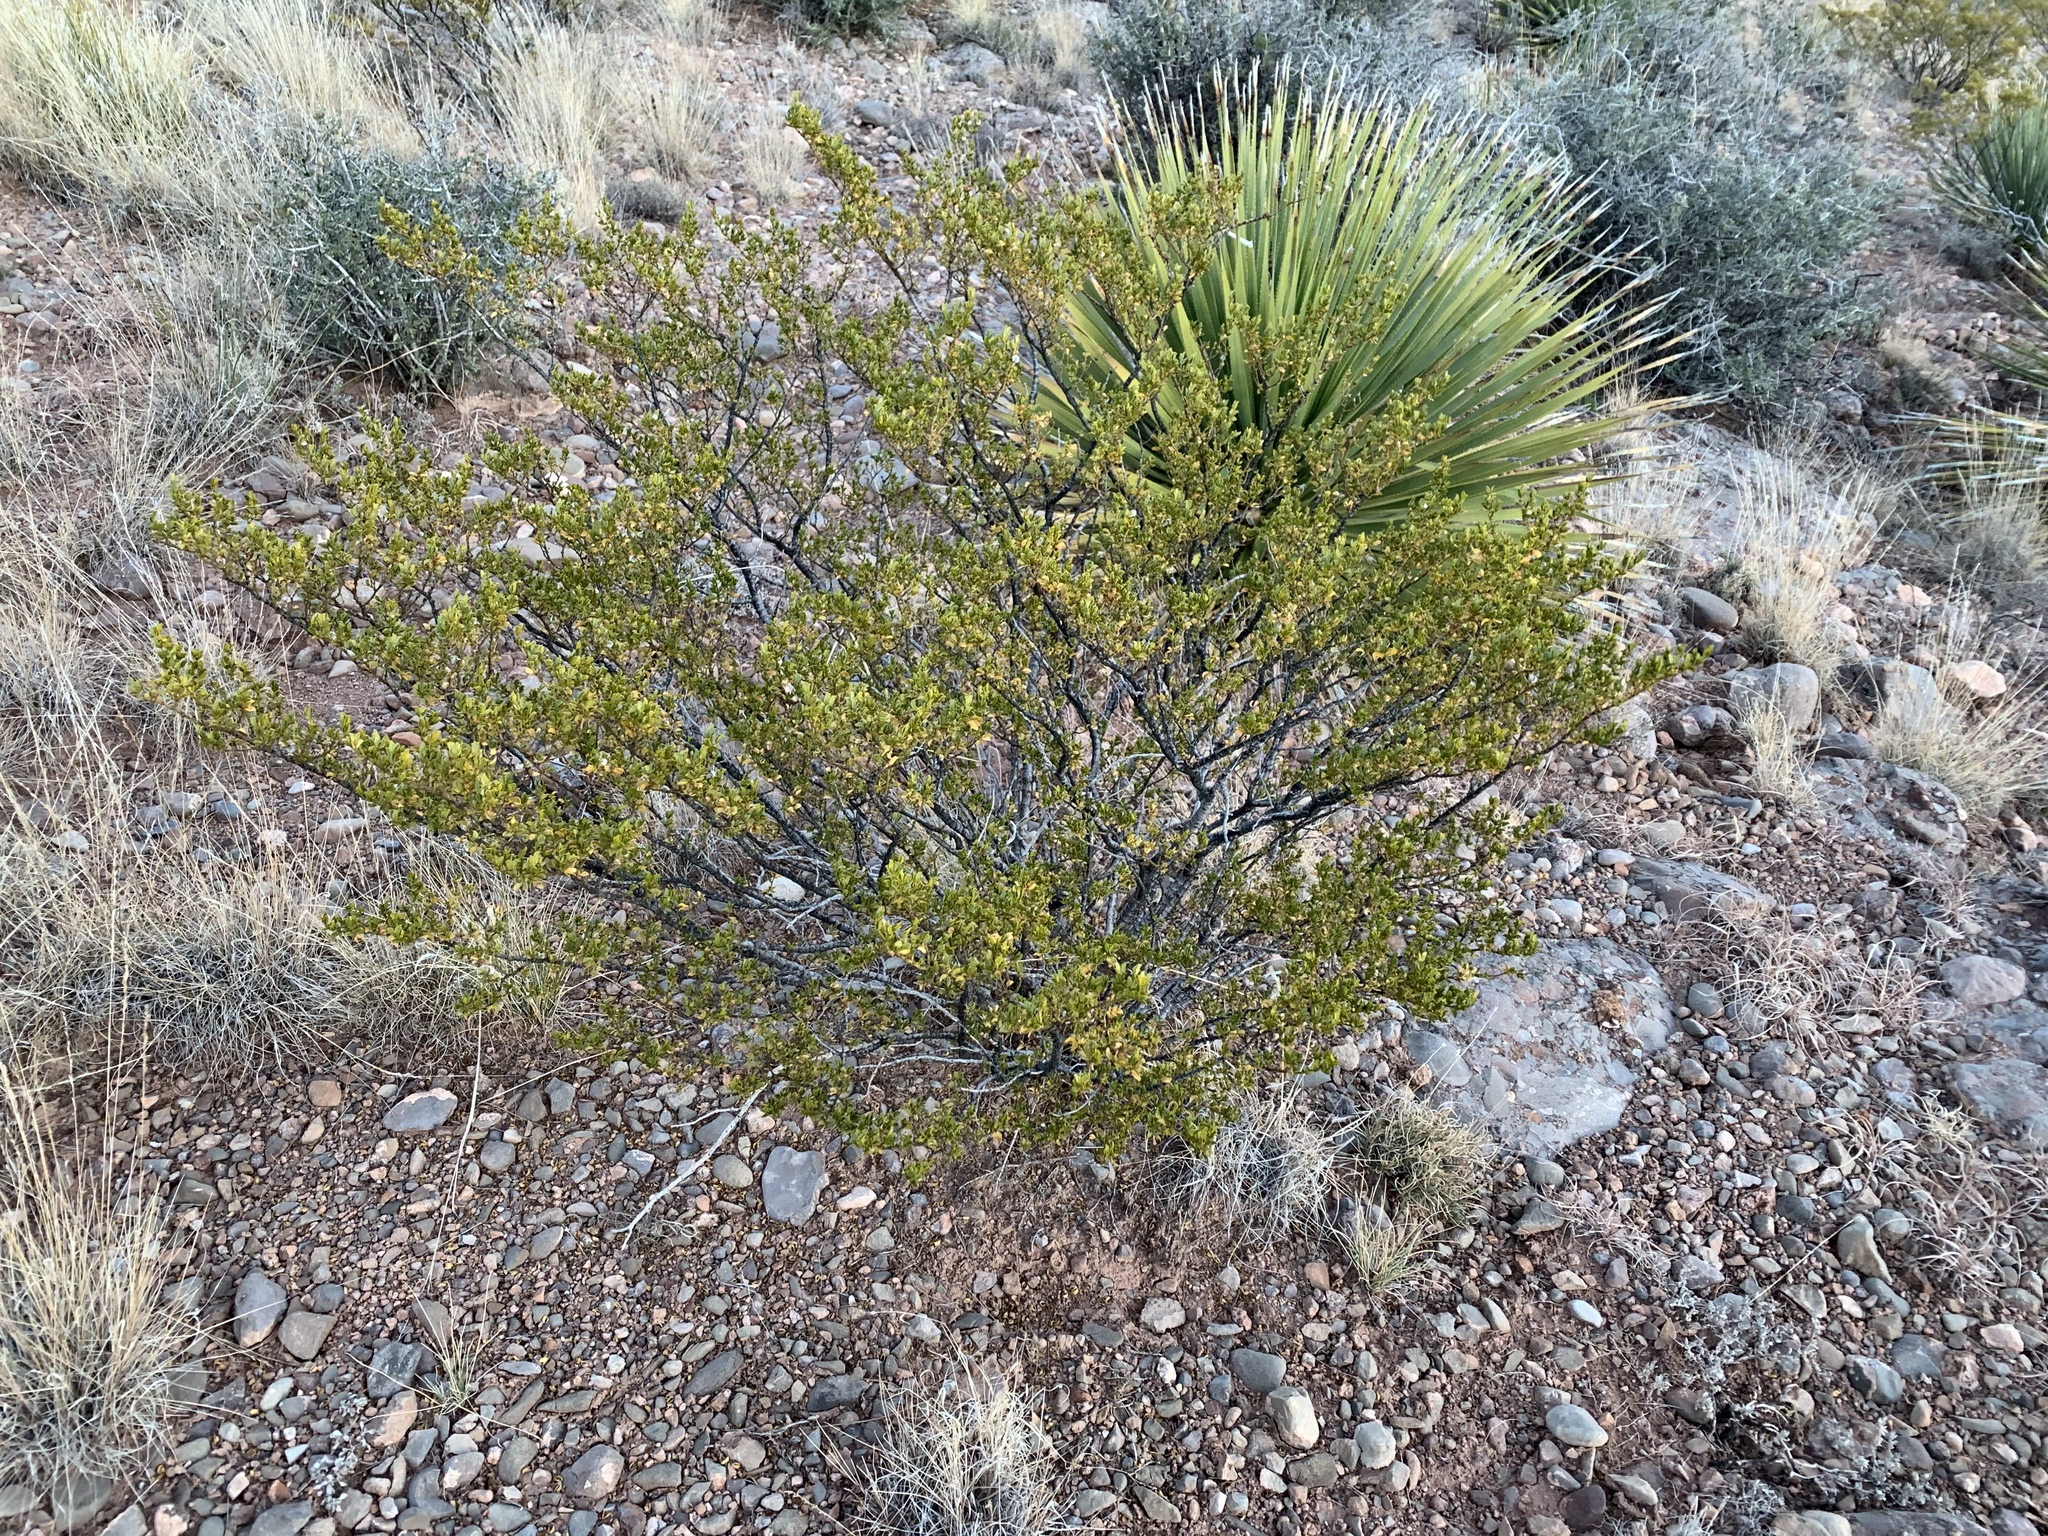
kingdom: Plantae
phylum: Tracheophyta
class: Magnoliopsida
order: Zygophyllales
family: Zygophyllaceae
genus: Larrea
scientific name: Larrea tridentata
